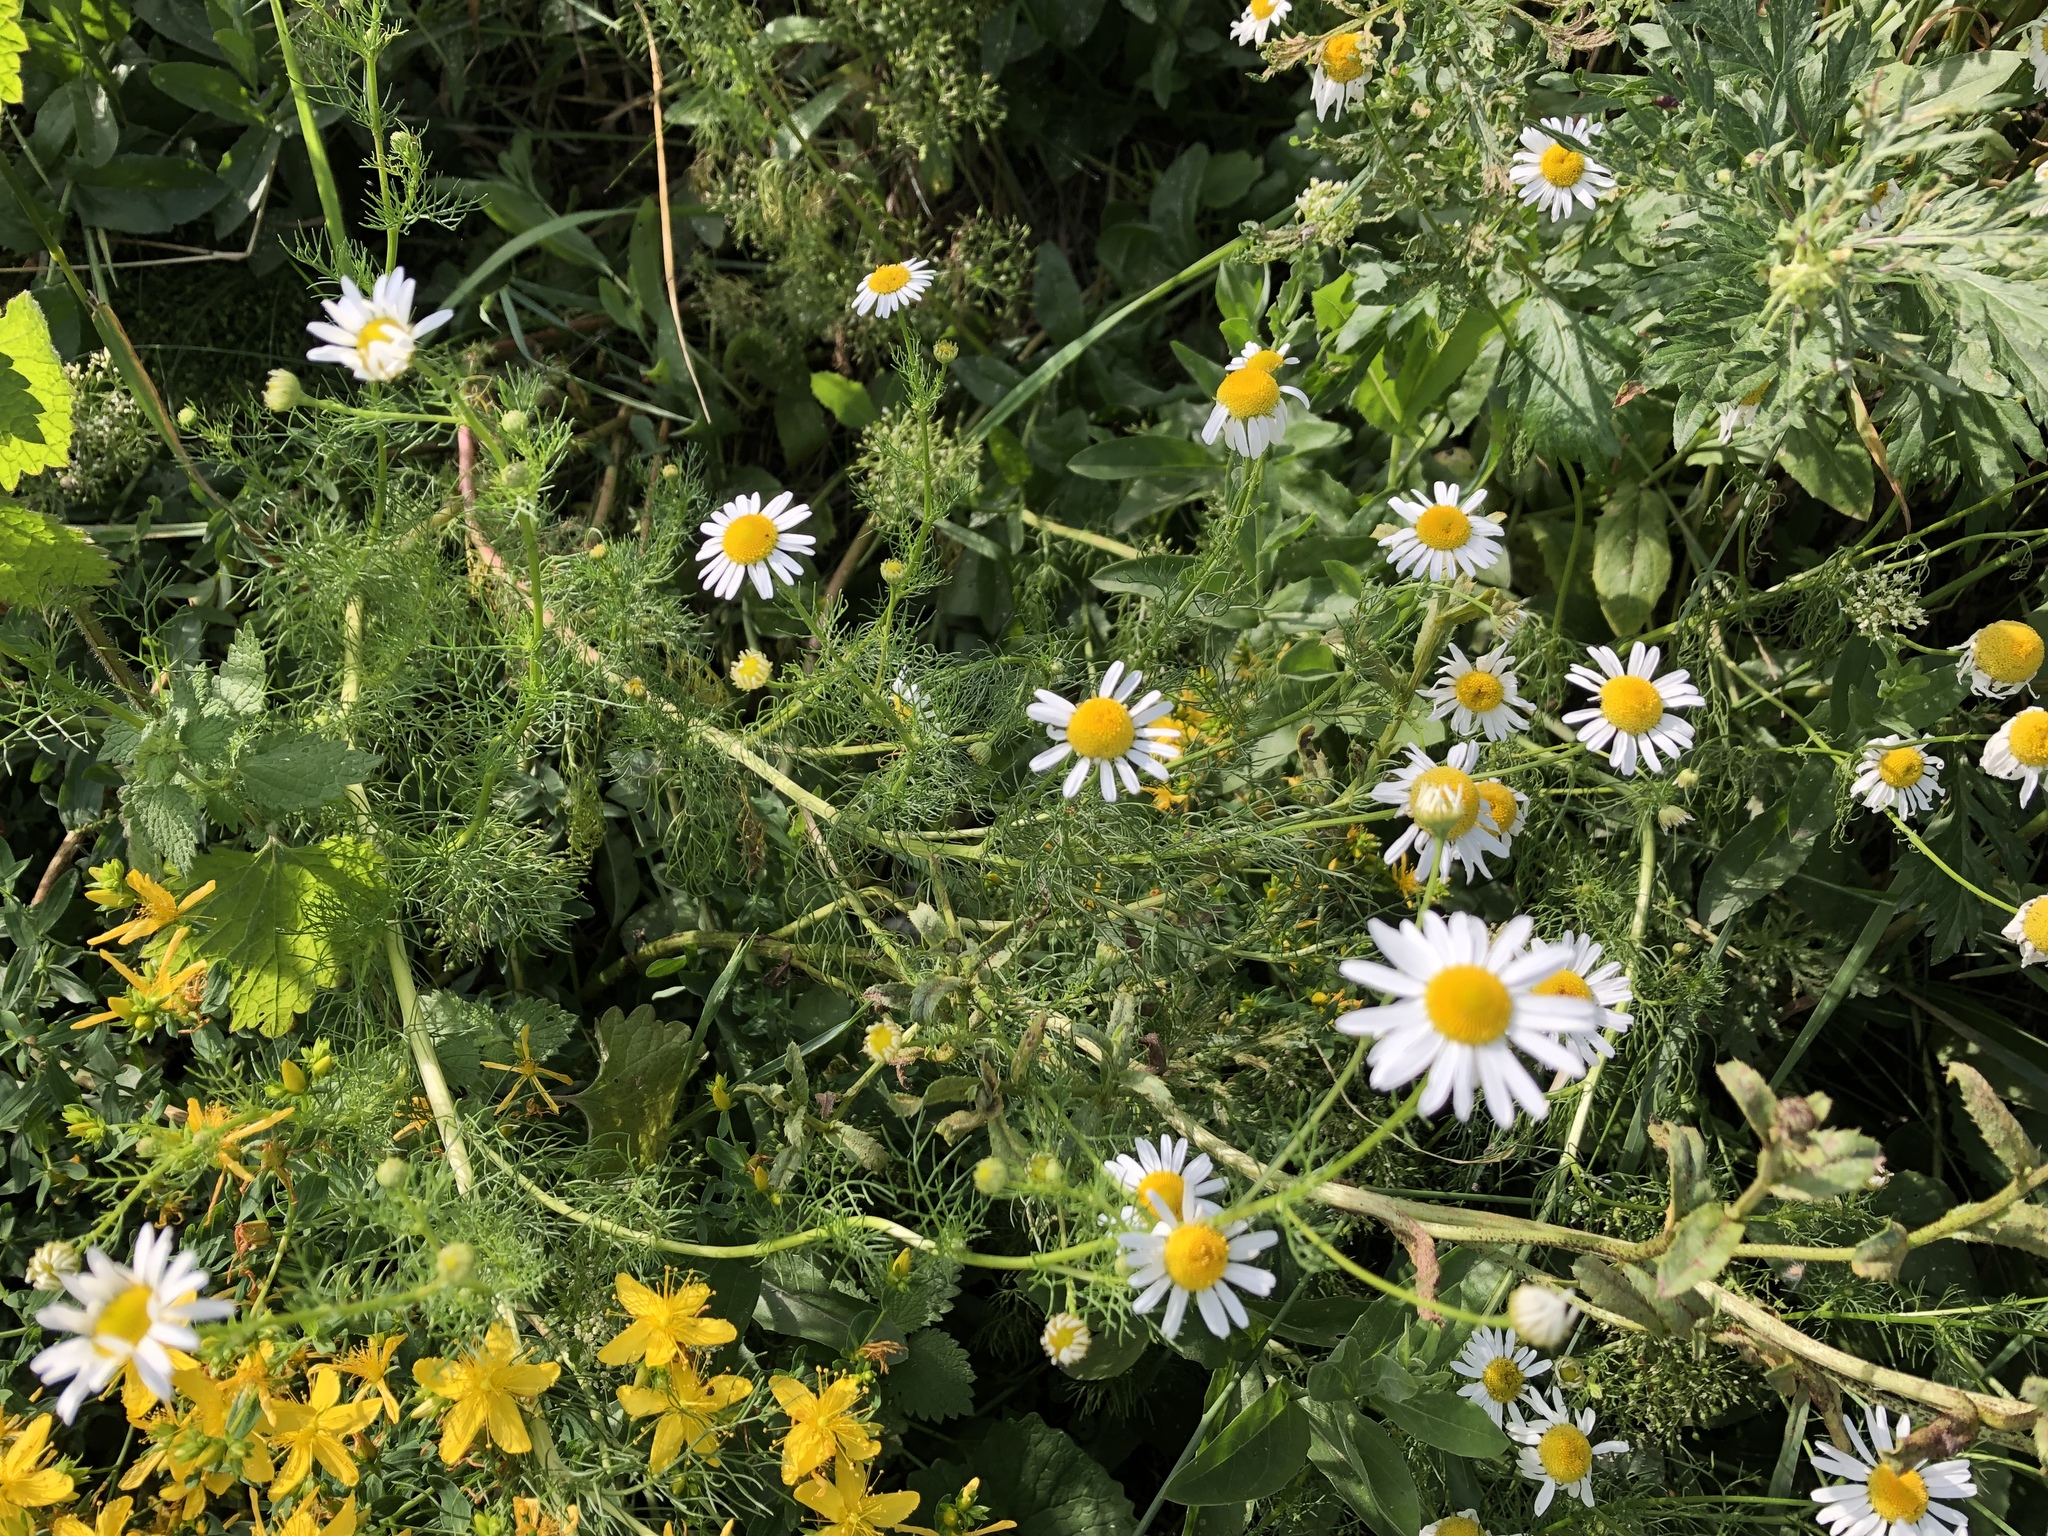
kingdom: Plantae
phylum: Tracheophyta
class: Magnoliopsida
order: Asterales
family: Asteraceae
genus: Tripleurospermum
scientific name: Tripleurospermum inodorum
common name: Scentless mayweed
